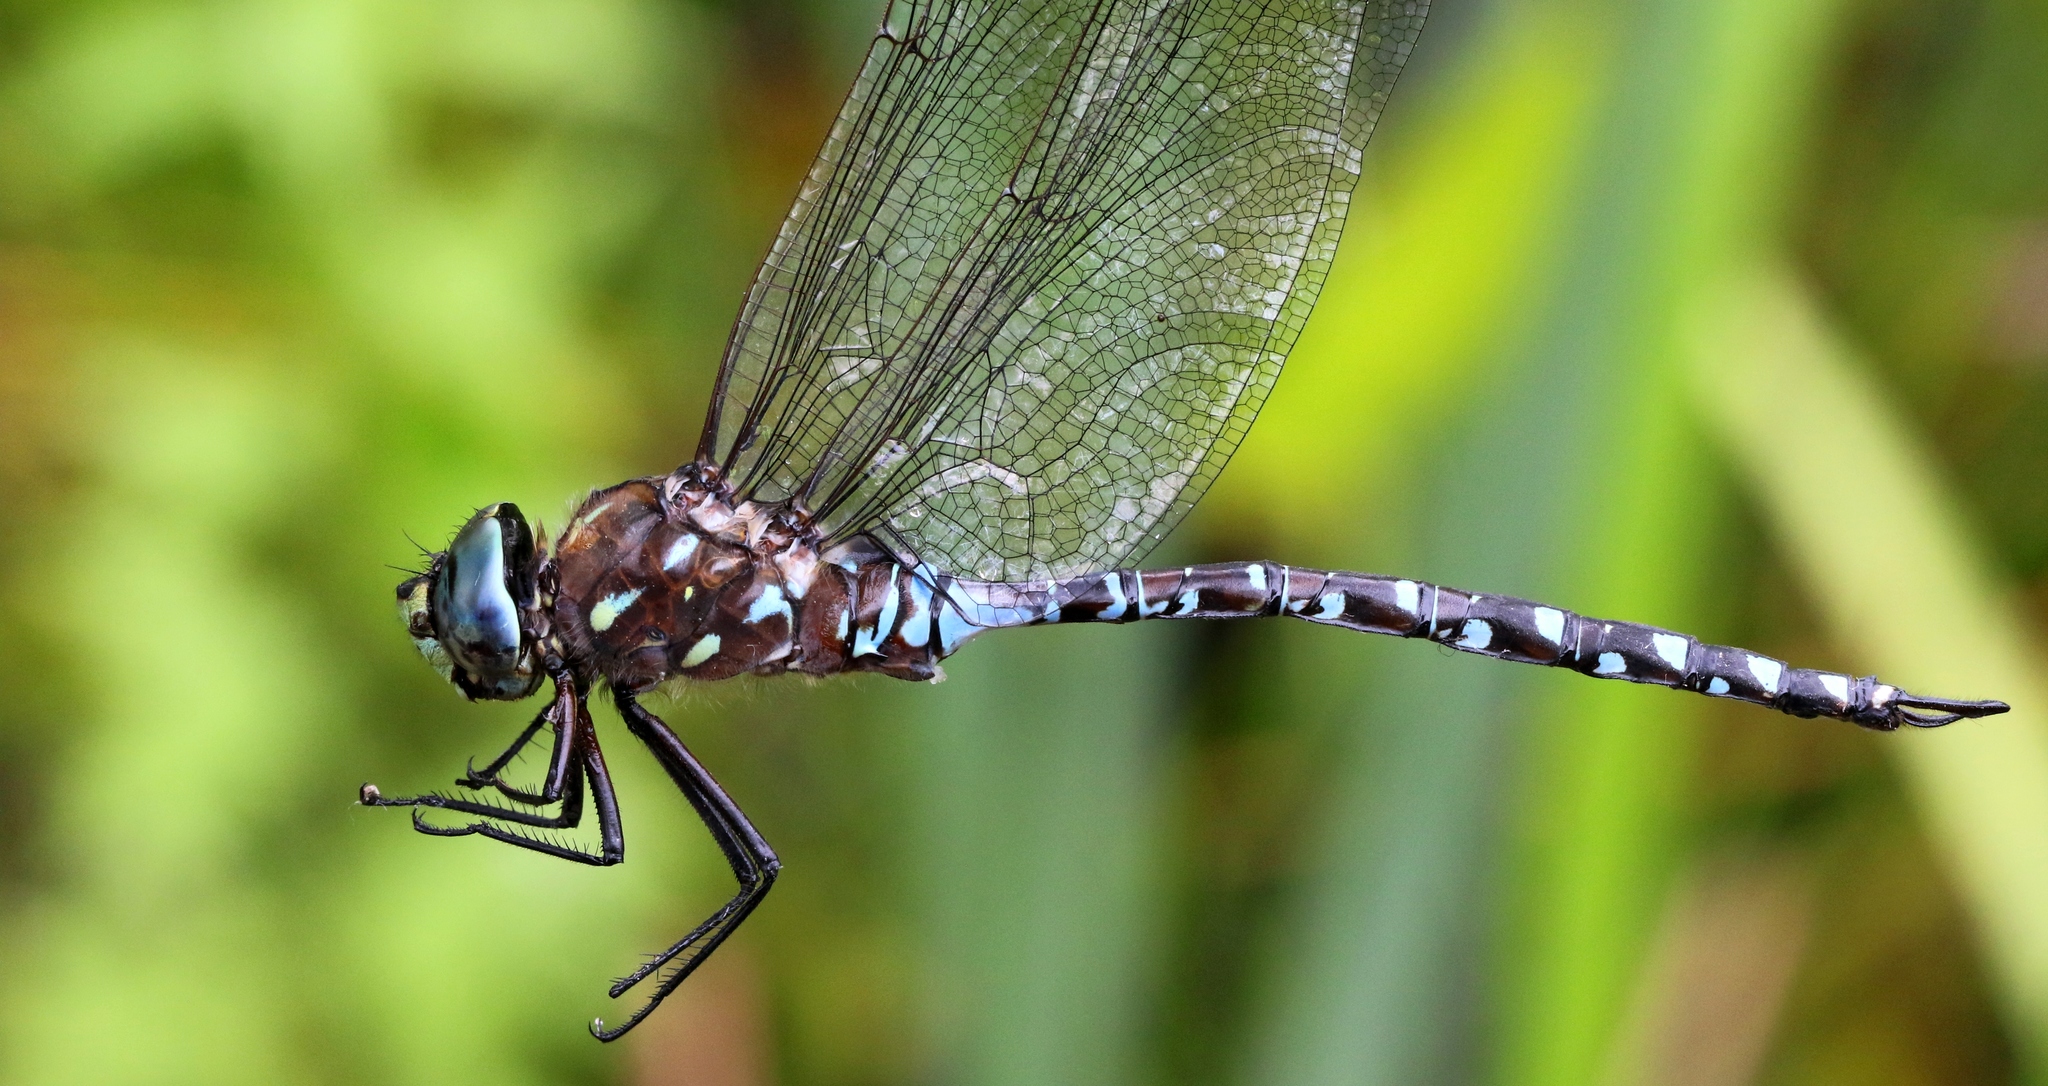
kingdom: Animalia
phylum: Arthropoda
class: Insecta
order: Odonata
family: Aeshnidae
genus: Aeshna
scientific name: Aeshna interrupta
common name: Variable darner
